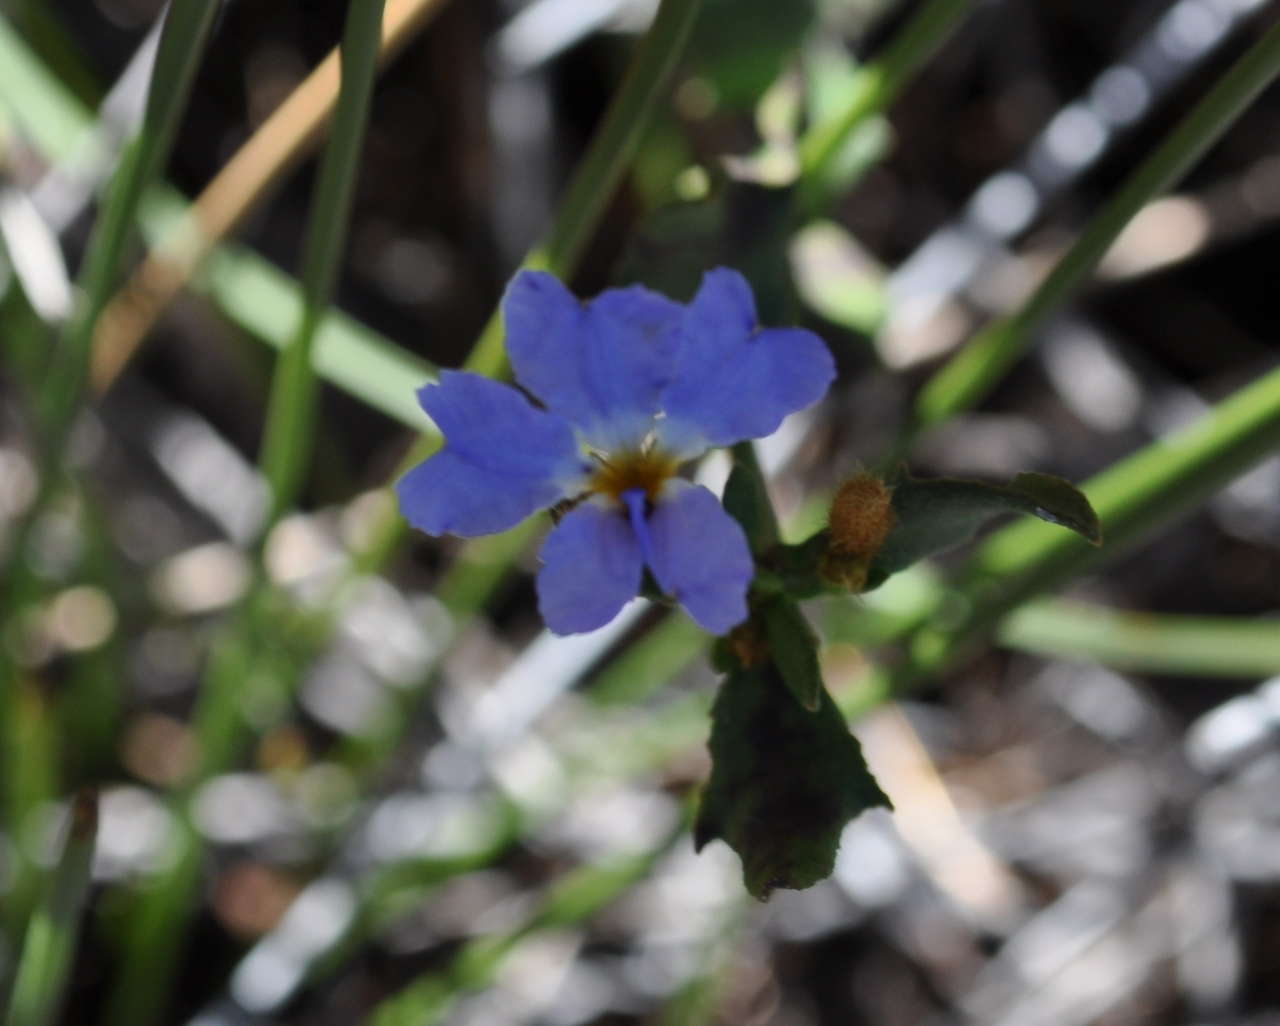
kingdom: Plantae
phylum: Tracheophyta
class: Magnoliopsida
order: Asterales
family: Goodeniaceae
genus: Dampiera
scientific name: Dampiera stricta
